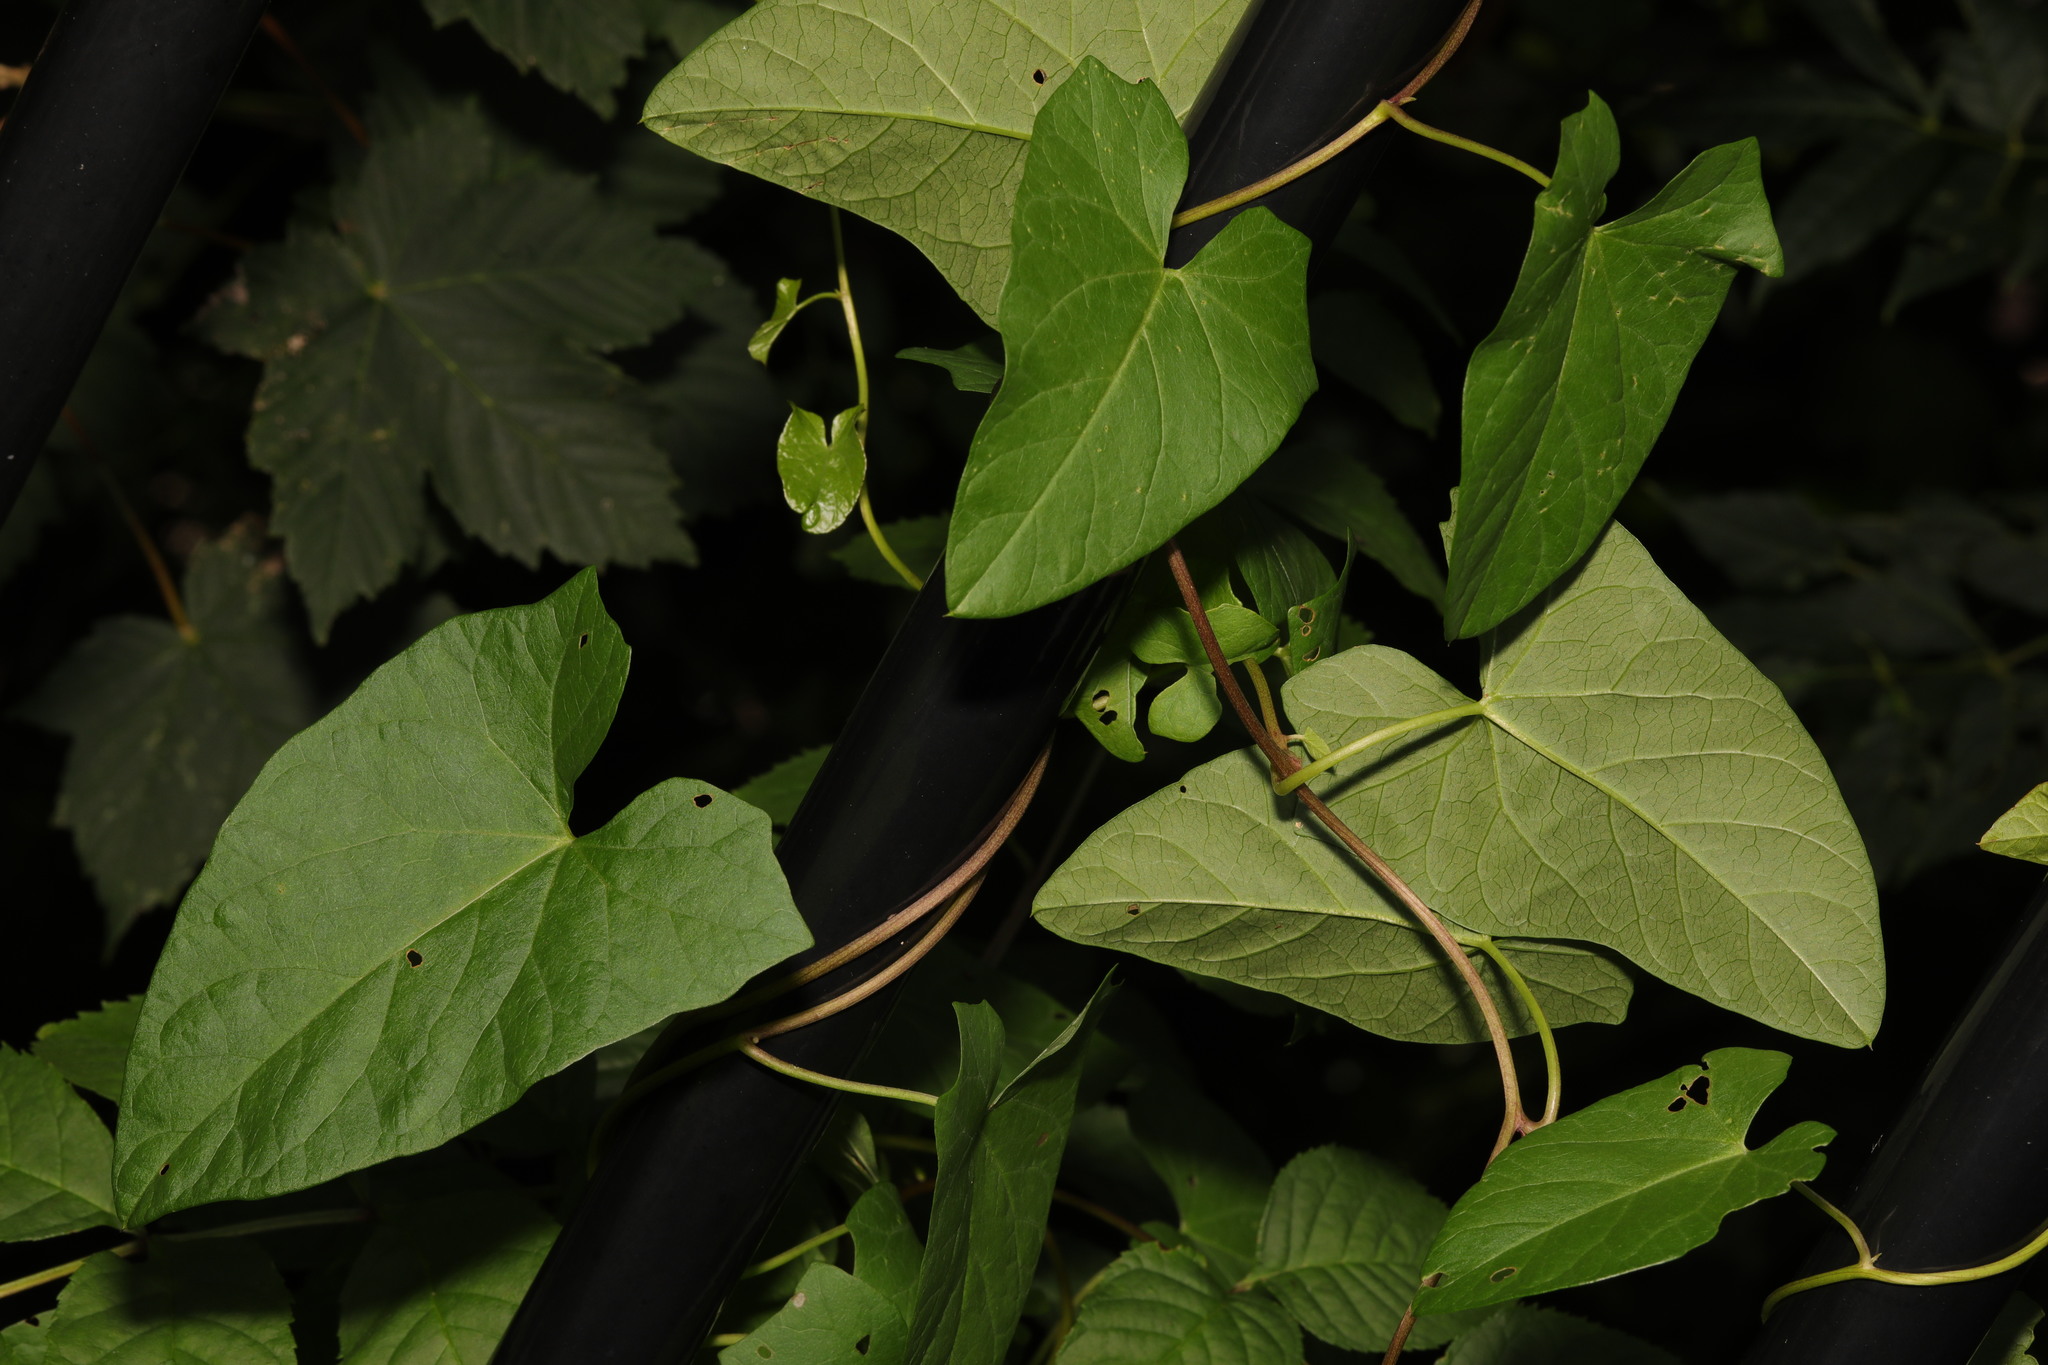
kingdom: Plantae
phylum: Tracheophyta
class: Magnoliopsida
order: Solanales
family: Convolvulaceae
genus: Calystegia
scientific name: Calystegia
